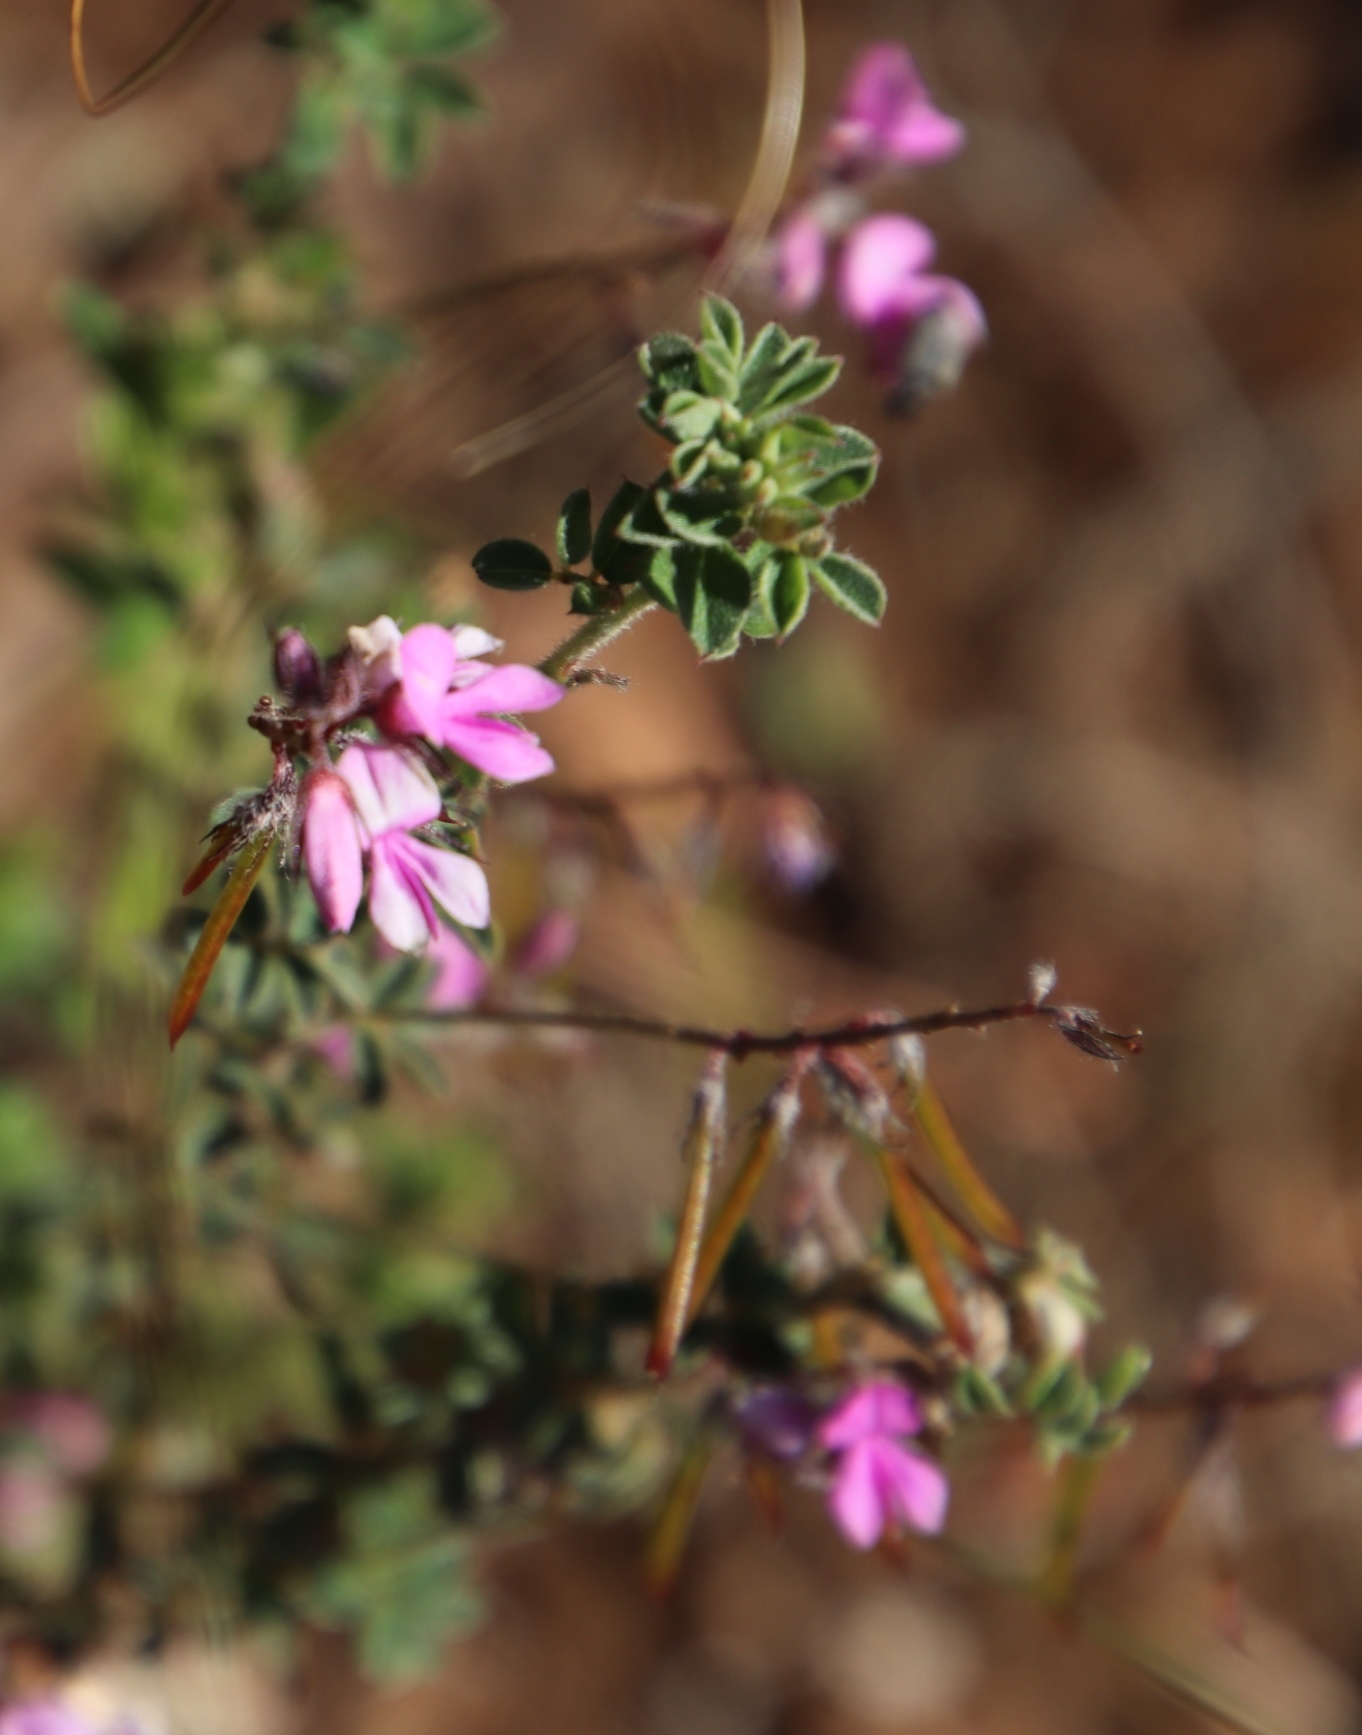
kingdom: Plantae
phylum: Tracheophyta
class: Magnoliopsida
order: Fabales
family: Fabaceae
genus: Indigofera
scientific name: Indigofera alopecuroides
